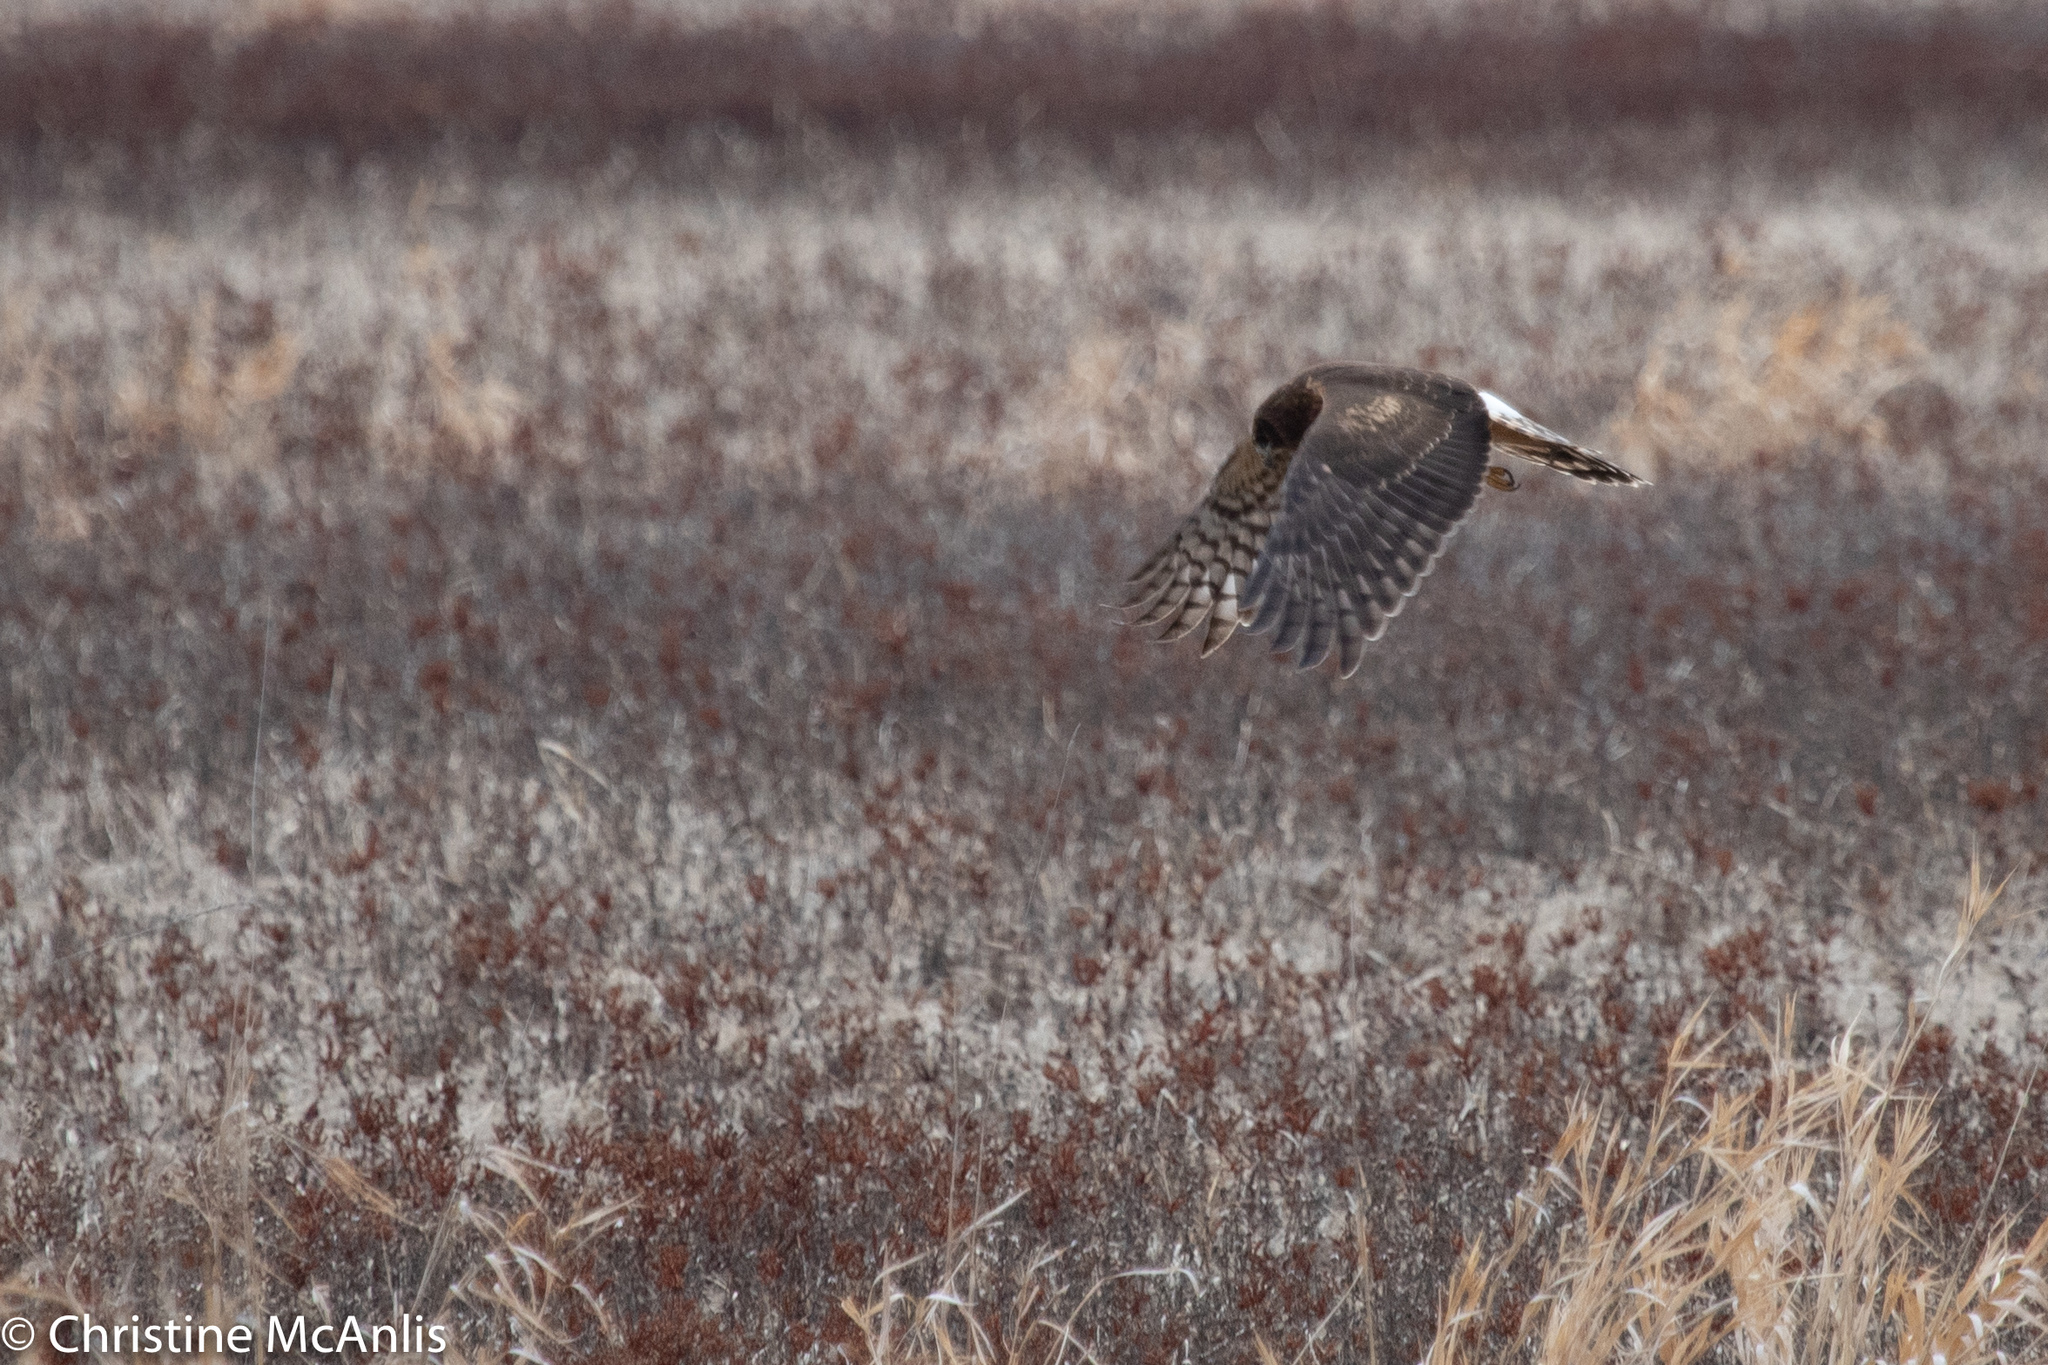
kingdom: Animalia
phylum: Chordata
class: Aves
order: Accipitriformes
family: Accipitridae
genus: Circus
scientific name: Circus cyaneus
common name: Hen harrier
